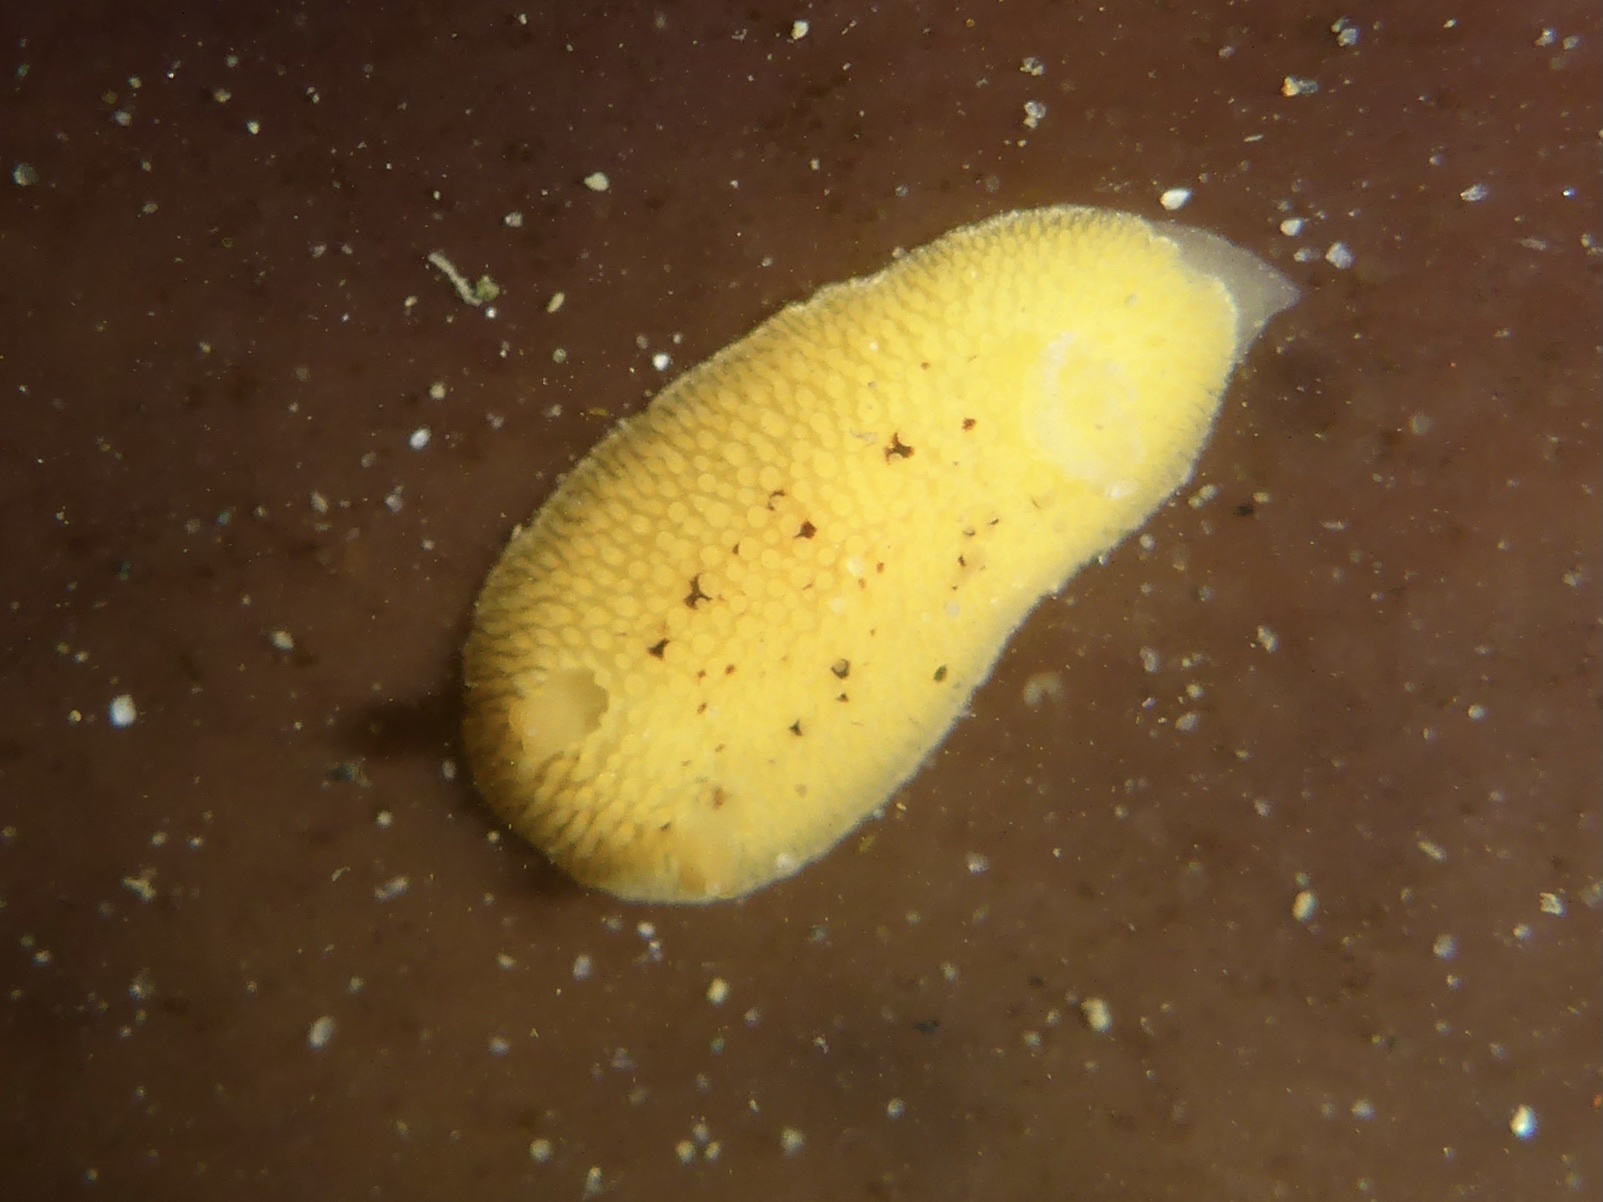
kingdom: Animalia
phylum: Mollusca
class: Gastropoda
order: Nudibranchia
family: Discodorididae
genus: Peltodoris
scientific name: Peltodoris nobilis
